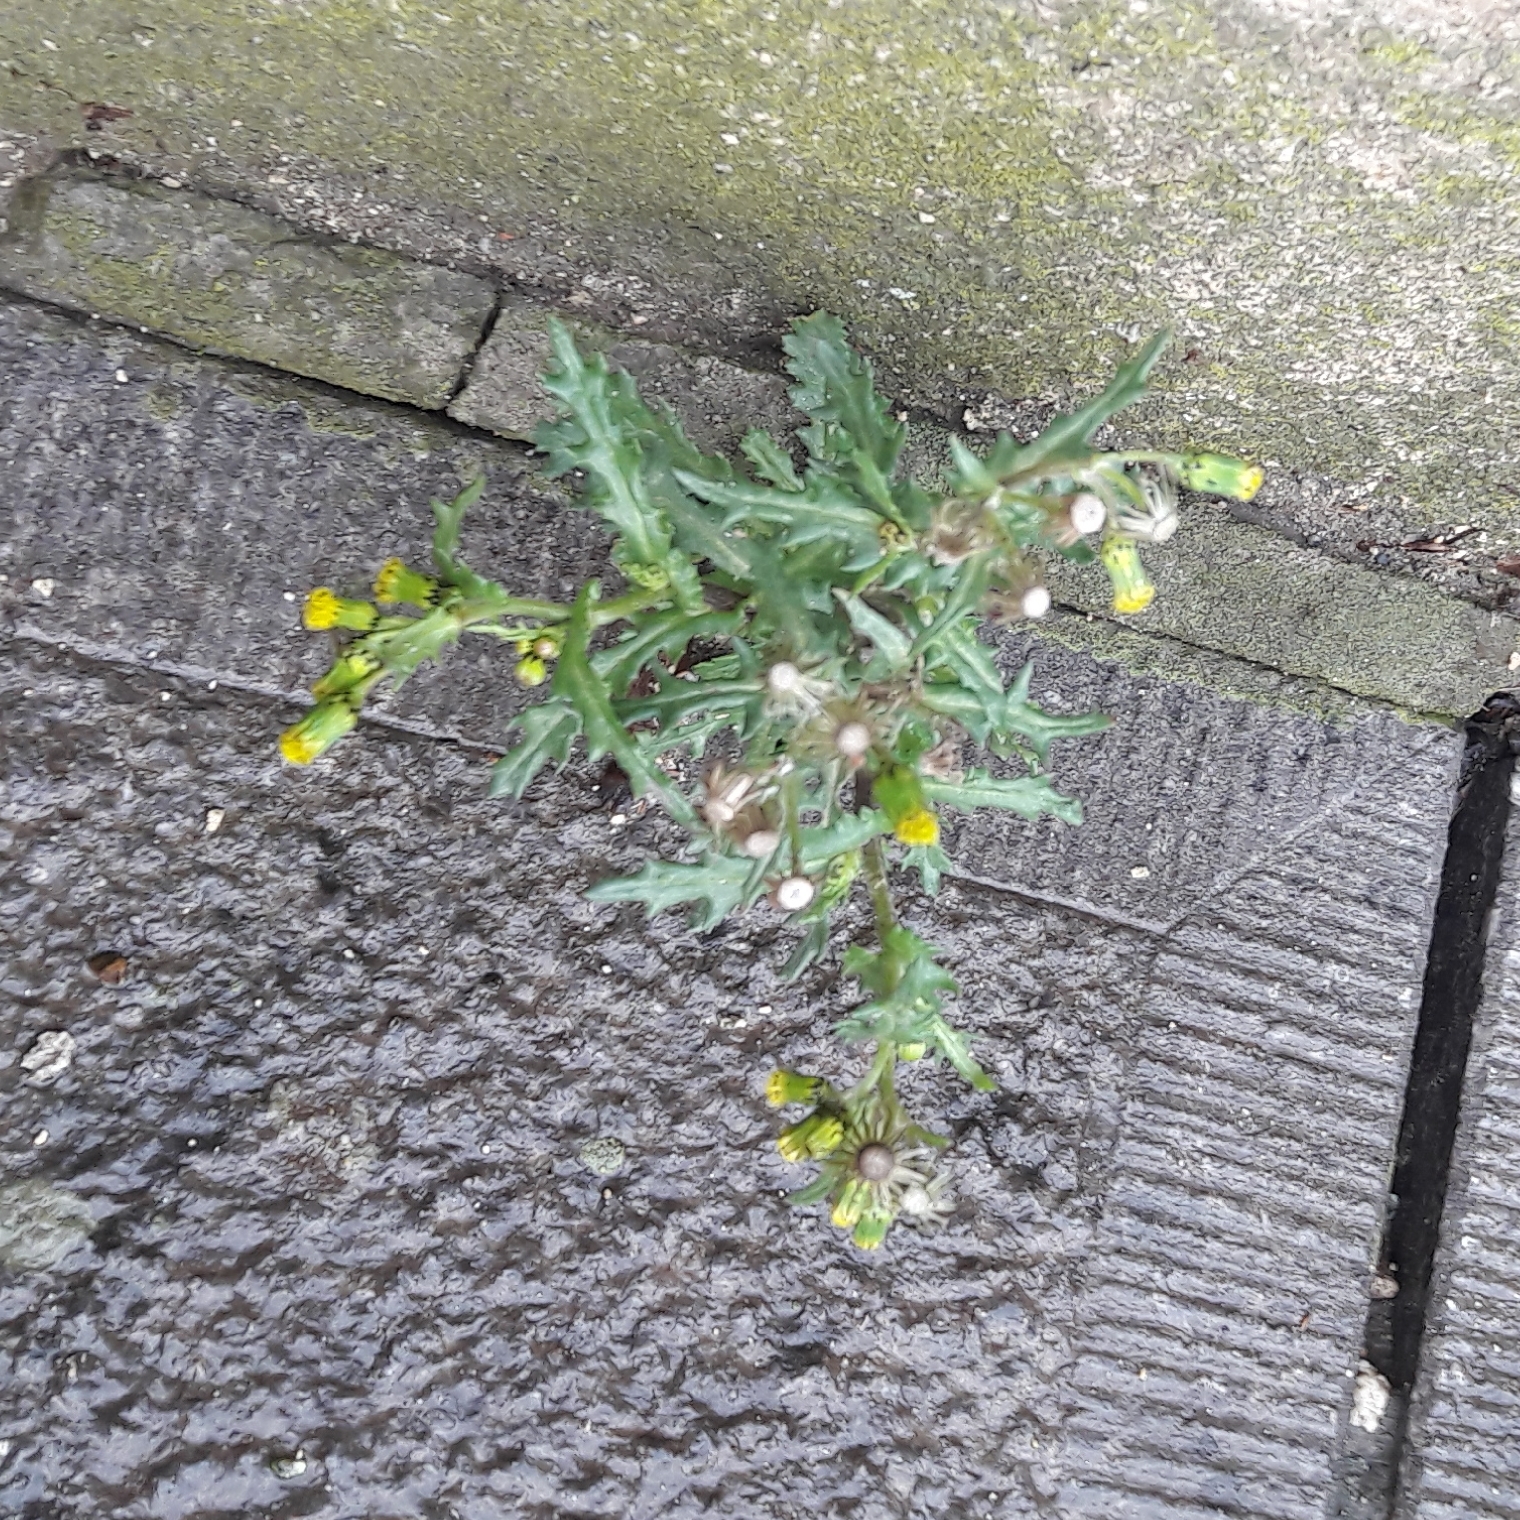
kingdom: Plantae
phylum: Tracheophyta
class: Magnoliopsida
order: Asterales
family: Asteraceae
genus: Senecio
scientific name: Senecio vulgaris
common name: Old-man-in-the-spring
